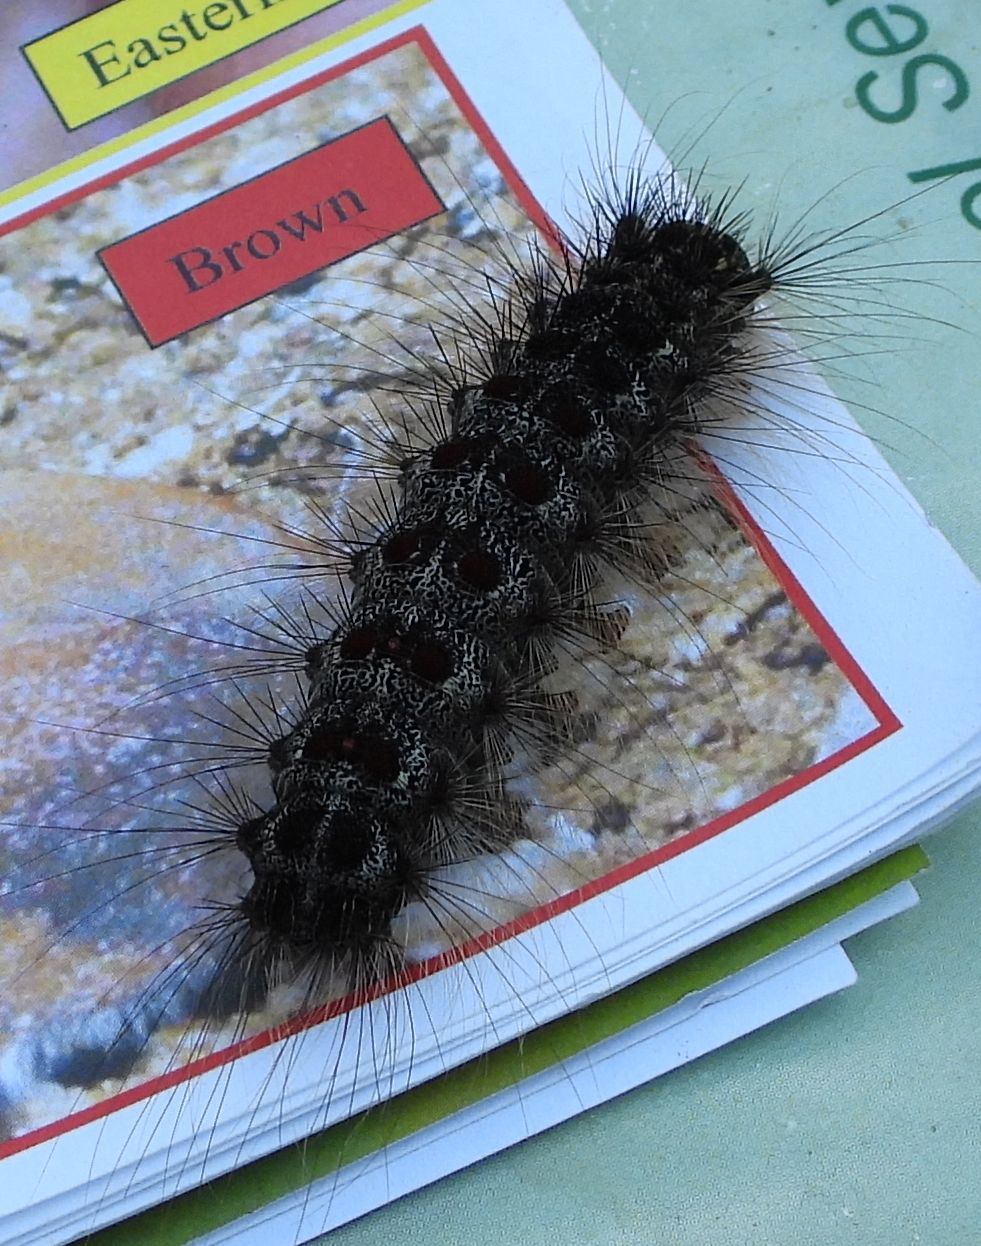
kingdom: Animalia
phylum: Arthropoda
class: Insecta
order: Lepidoptera
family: Erebidae
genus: Lymantria
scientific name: Lymantria dispar
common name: Gypsy moth
